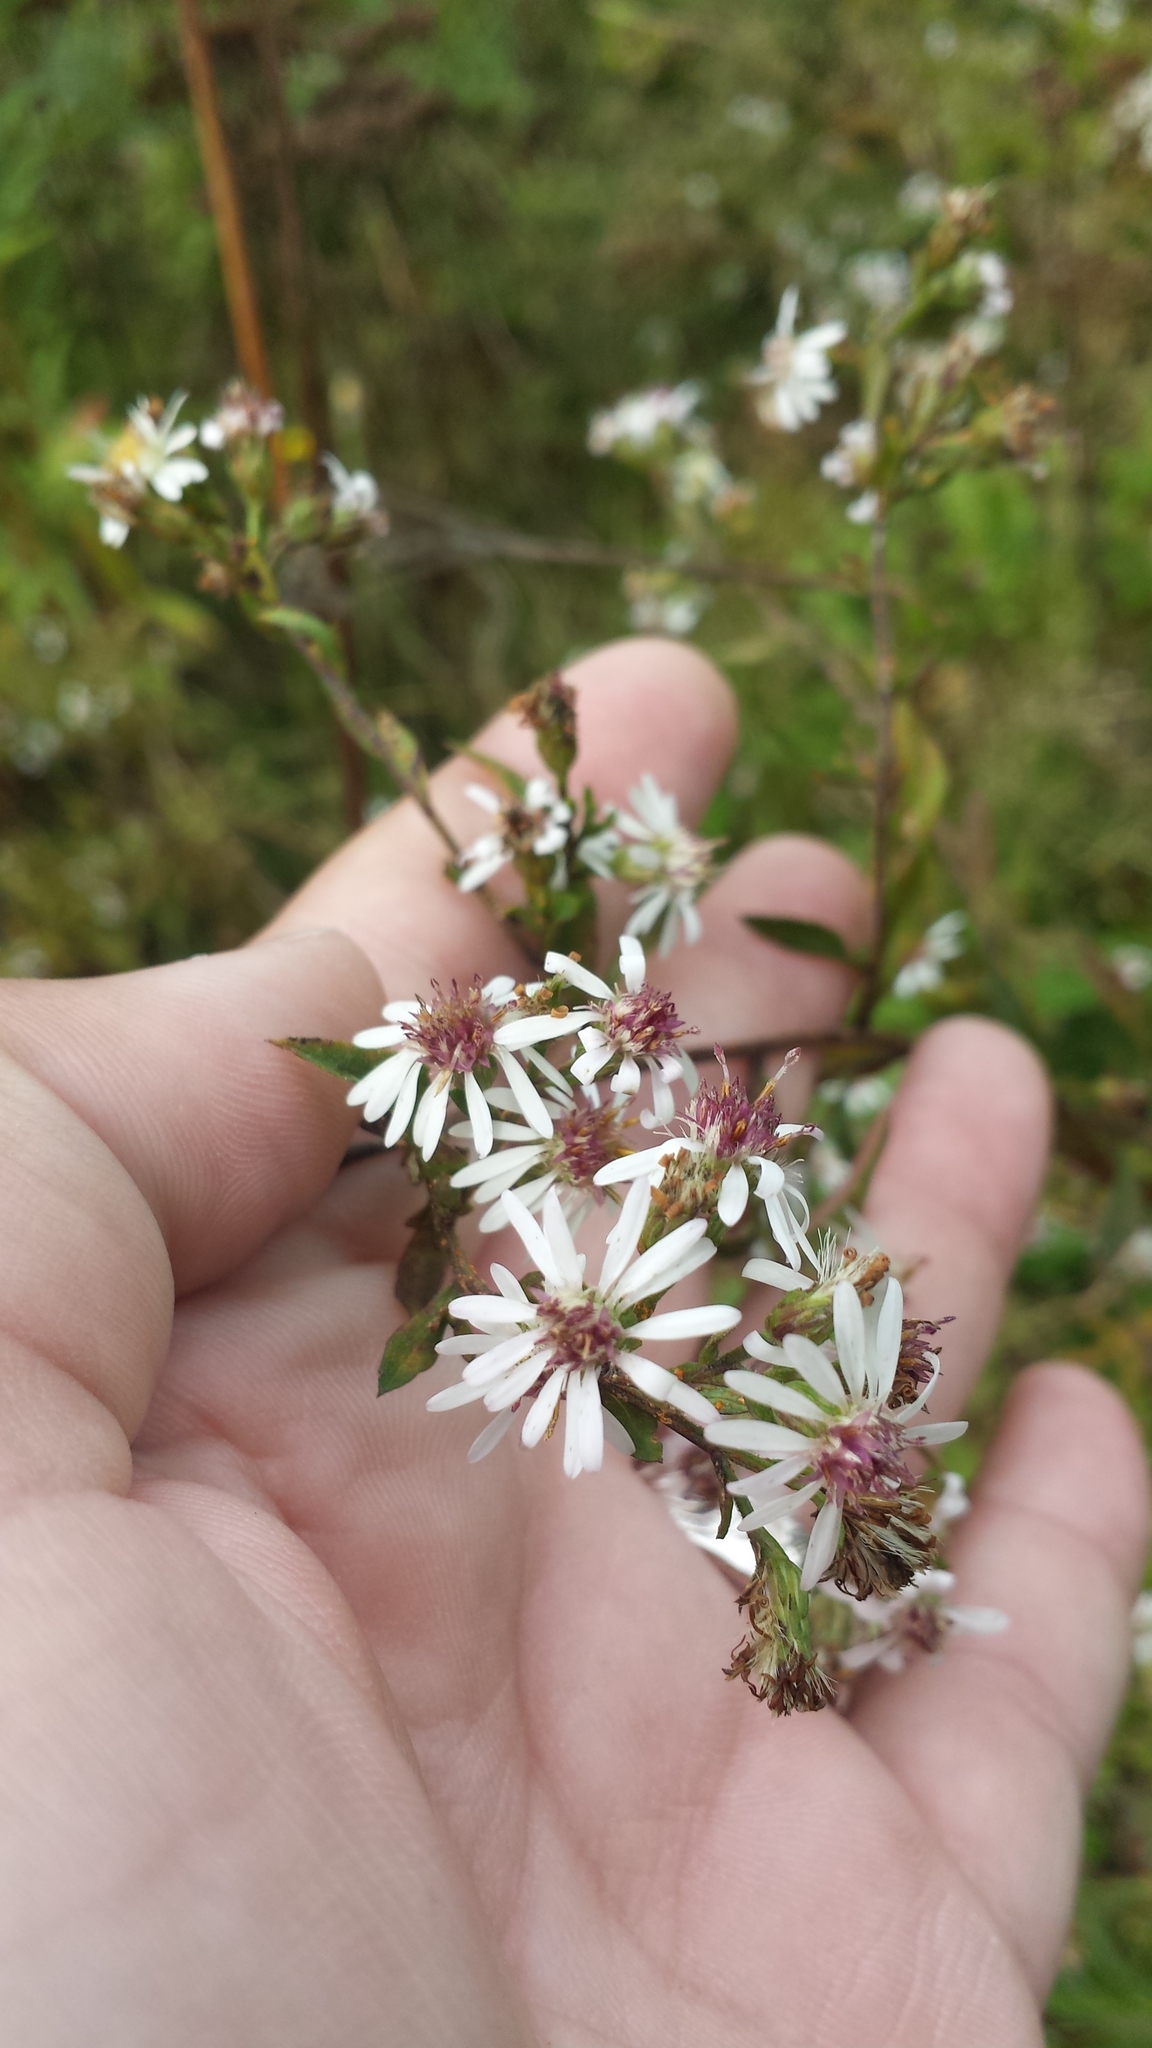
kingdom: Plantae
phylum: Tracheophyta
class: Magnoliopsida
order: Asterales
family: Asteraceae
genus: Symphyotrichum
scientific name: Symphyotrichum lateriflorum
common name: Calico aster
